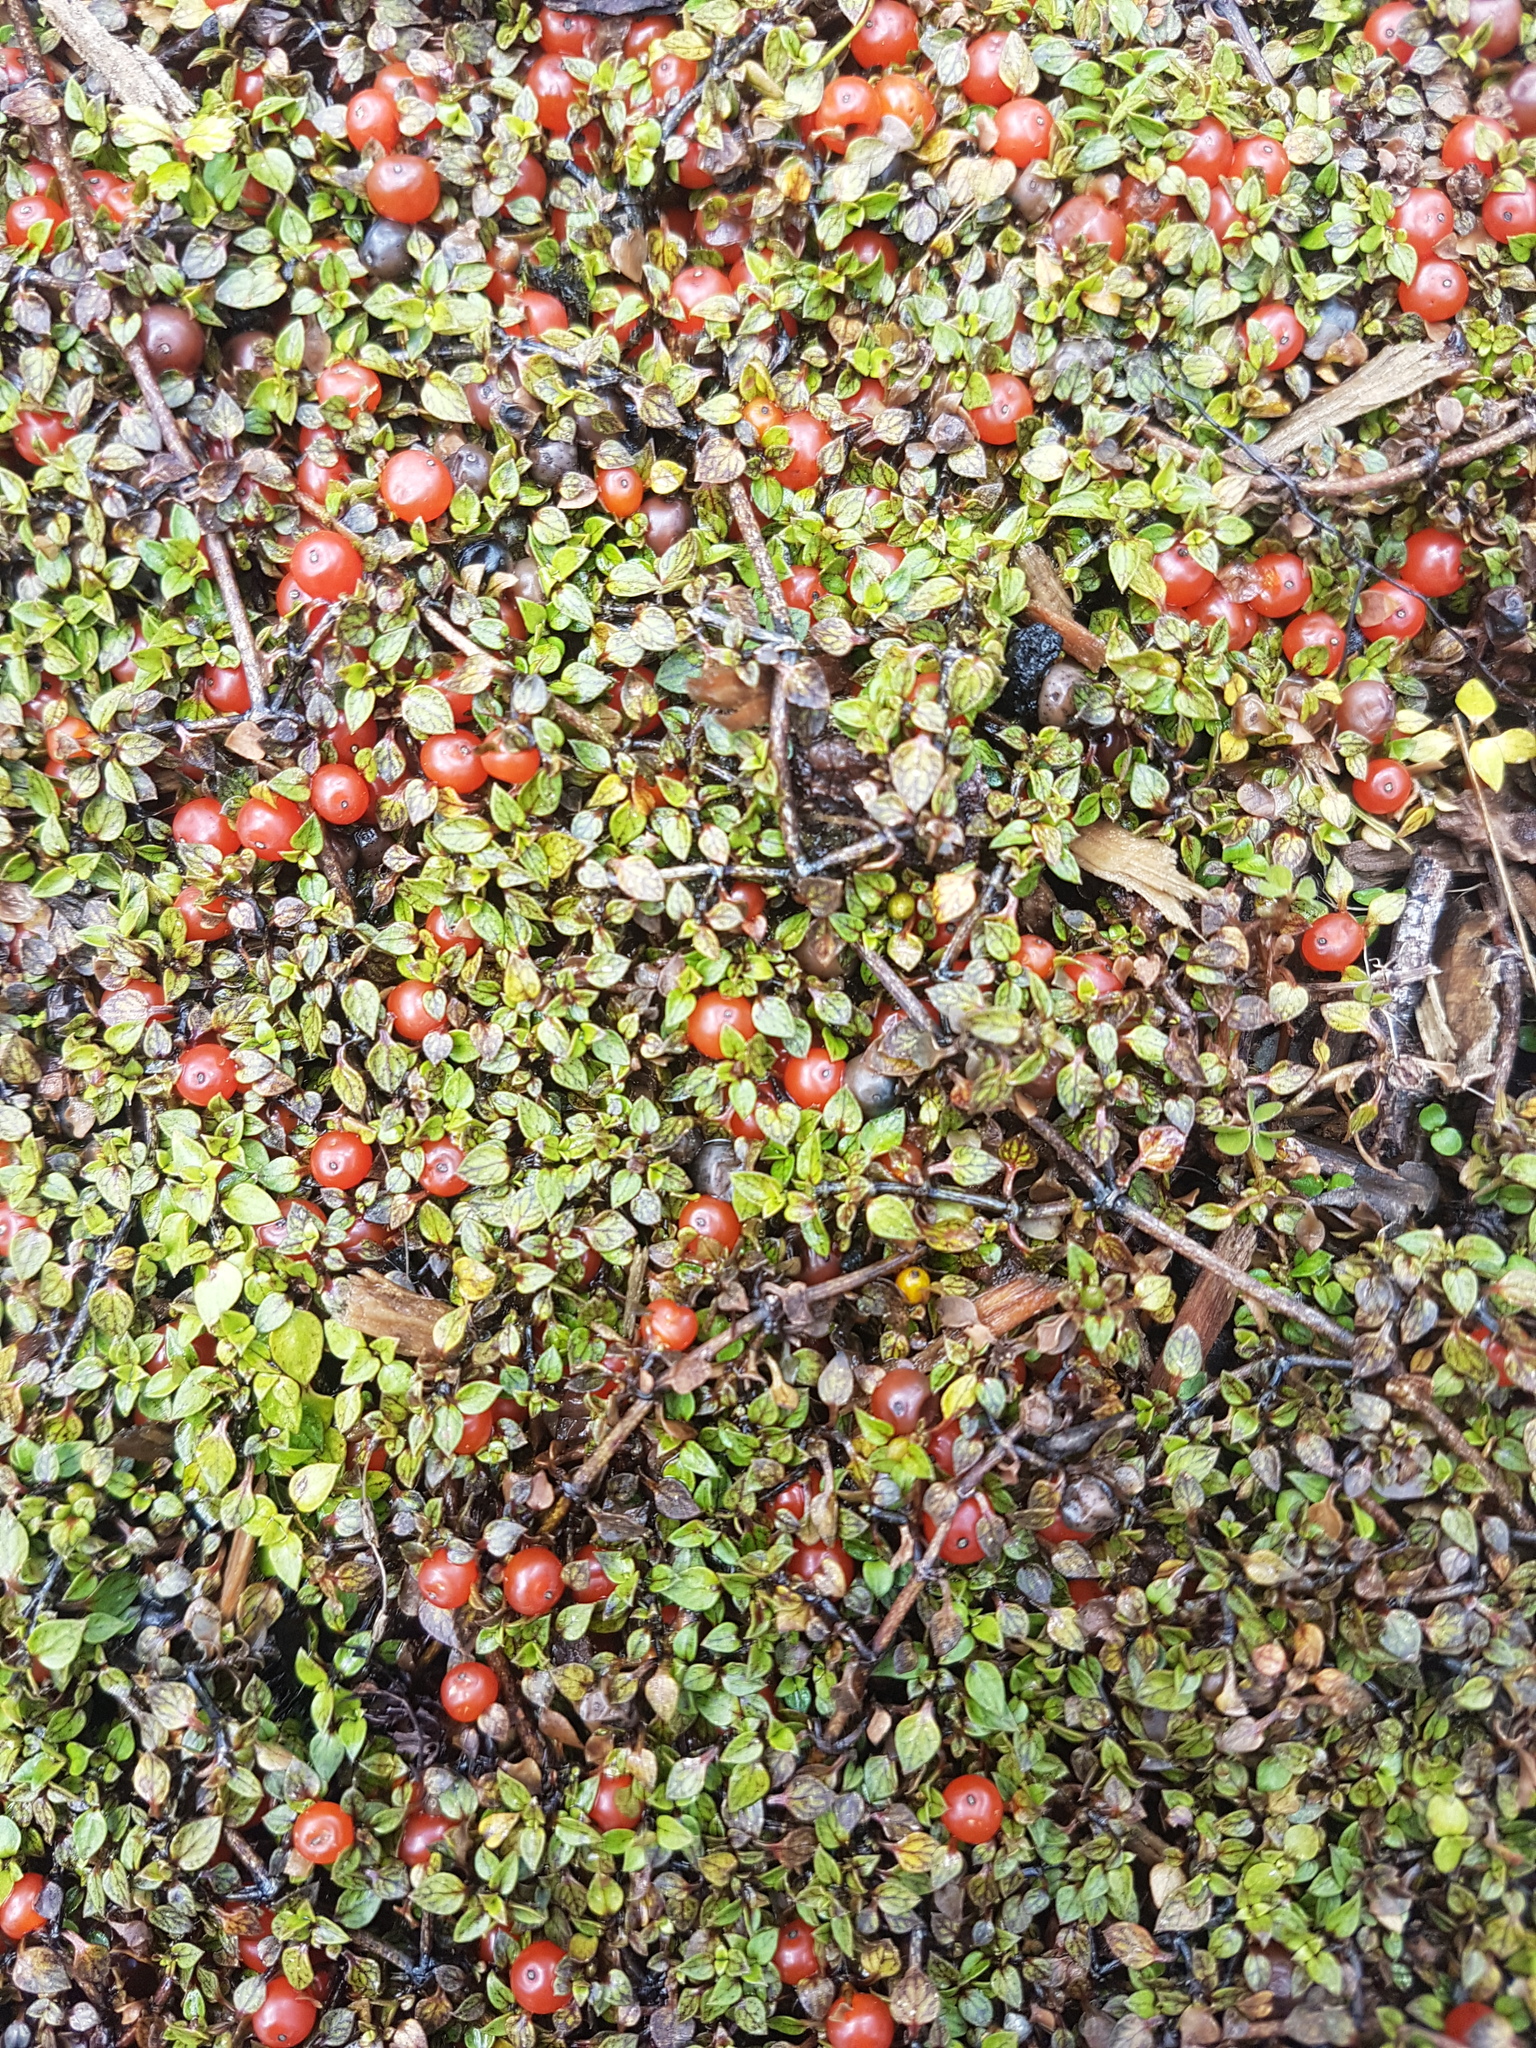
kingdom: Plantae
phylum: Tracheophyta
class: Magnoliopsida
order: Gentianales
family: Rubiaceae
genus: Nertera
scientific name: Nertera granadensis
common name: Beadplant
